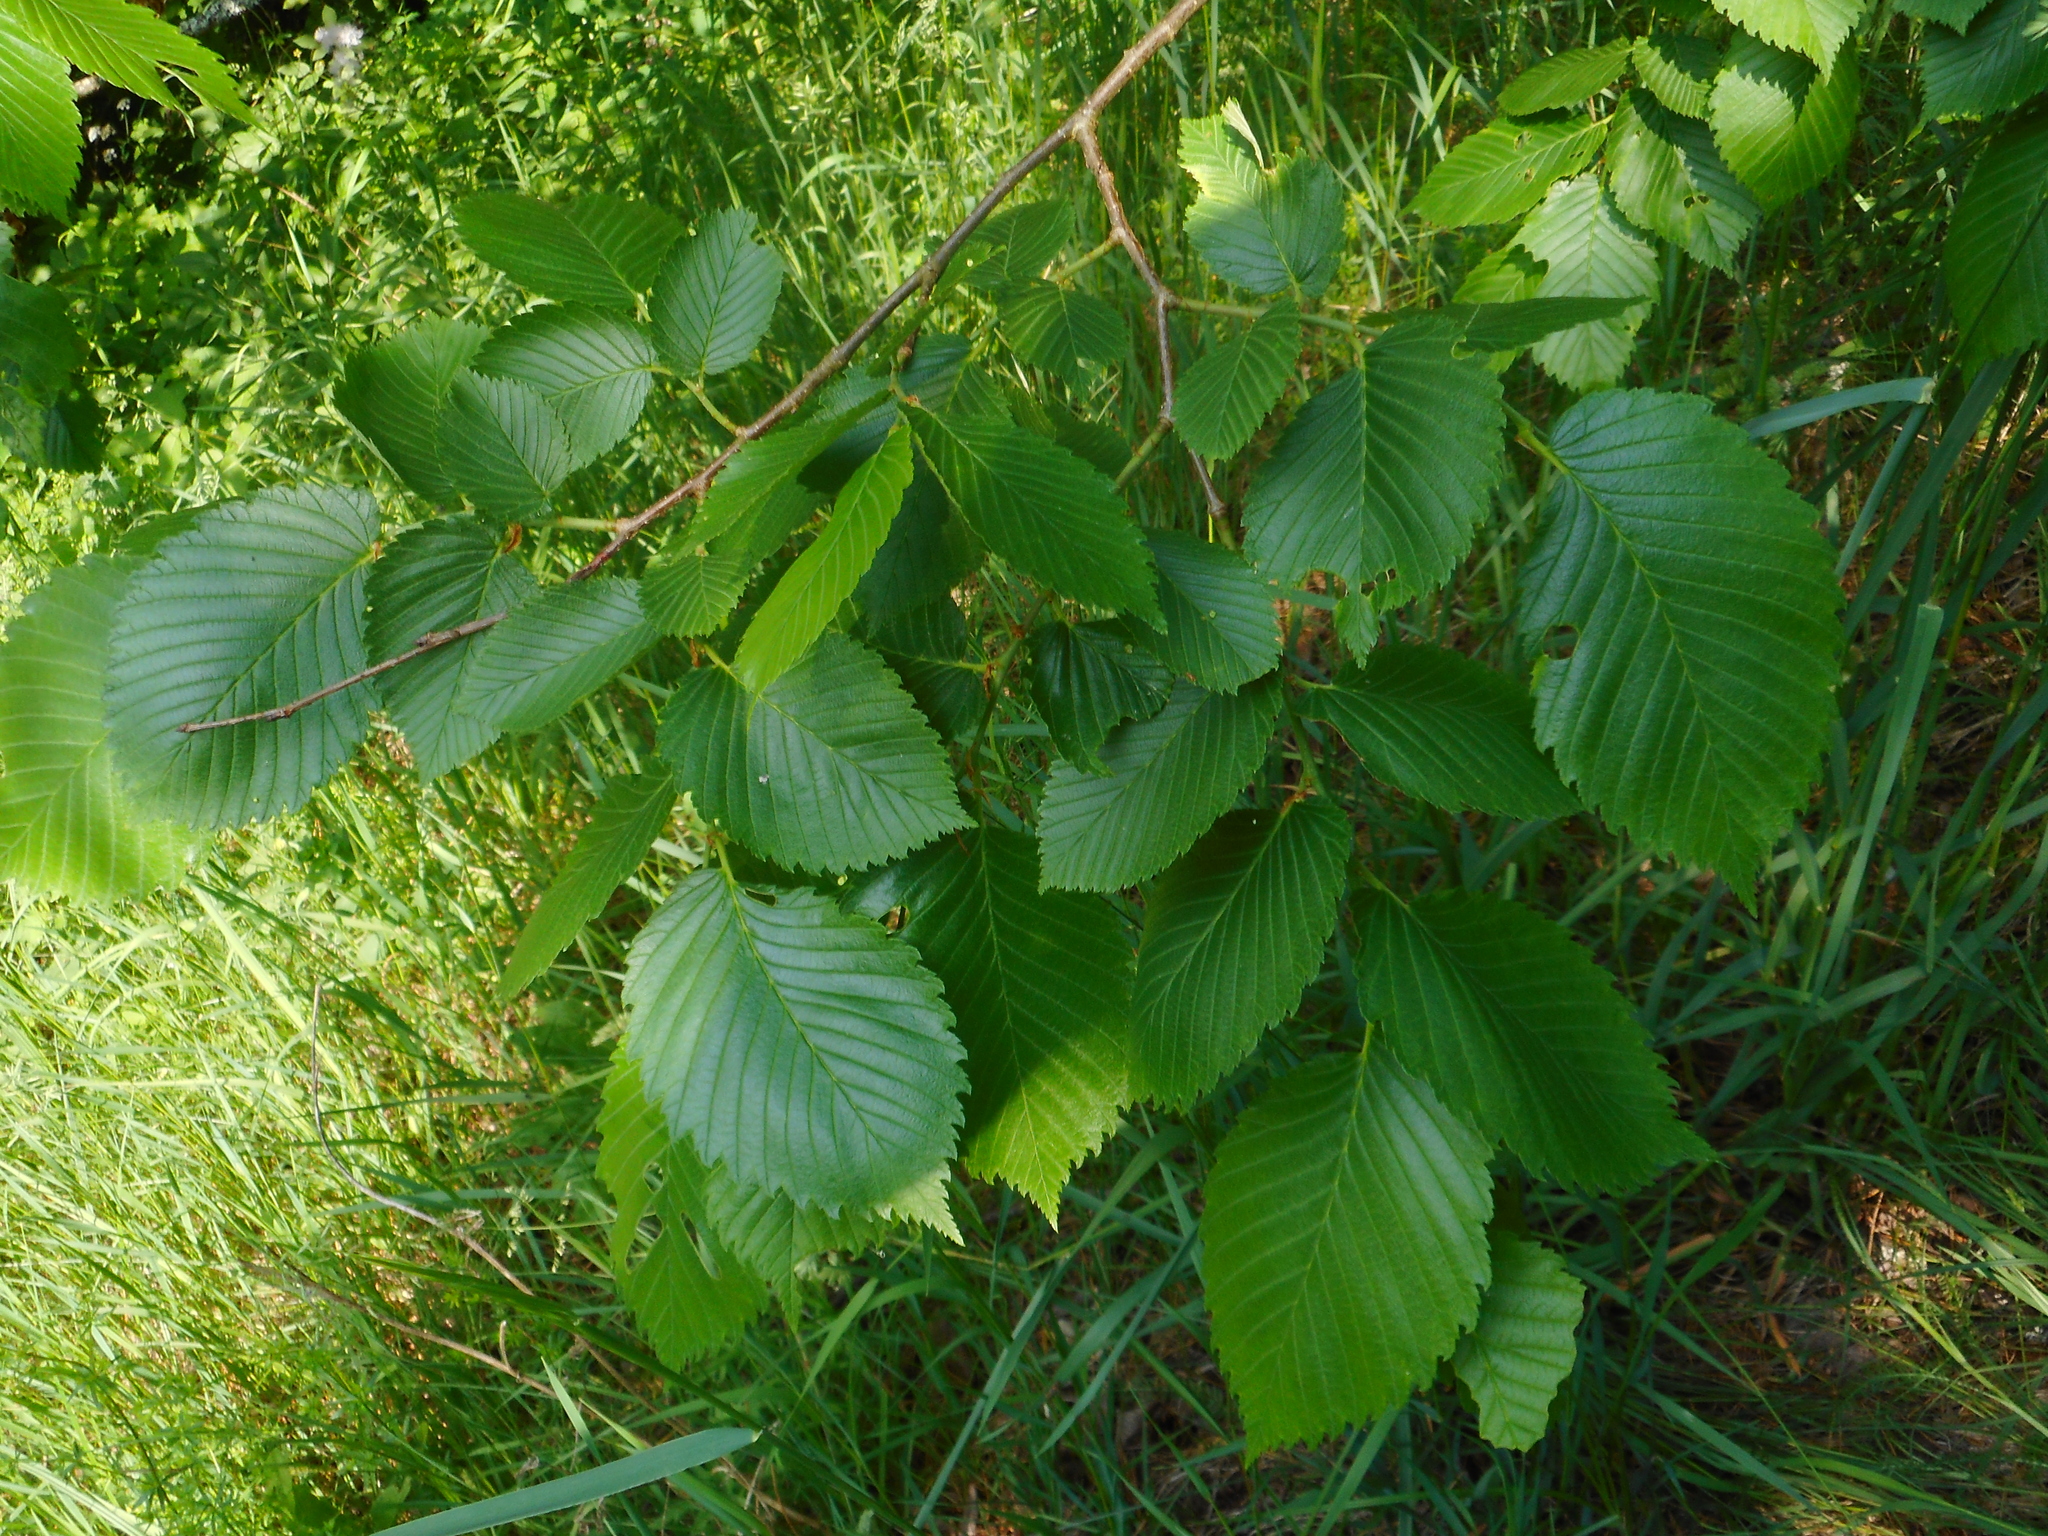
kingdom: Plantae
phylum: Tracheophyta
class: Magnoliopsida
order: Rosales
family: Ulmaceae
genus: Ulmus
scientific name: Ulmus laevis
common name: European white-elm
